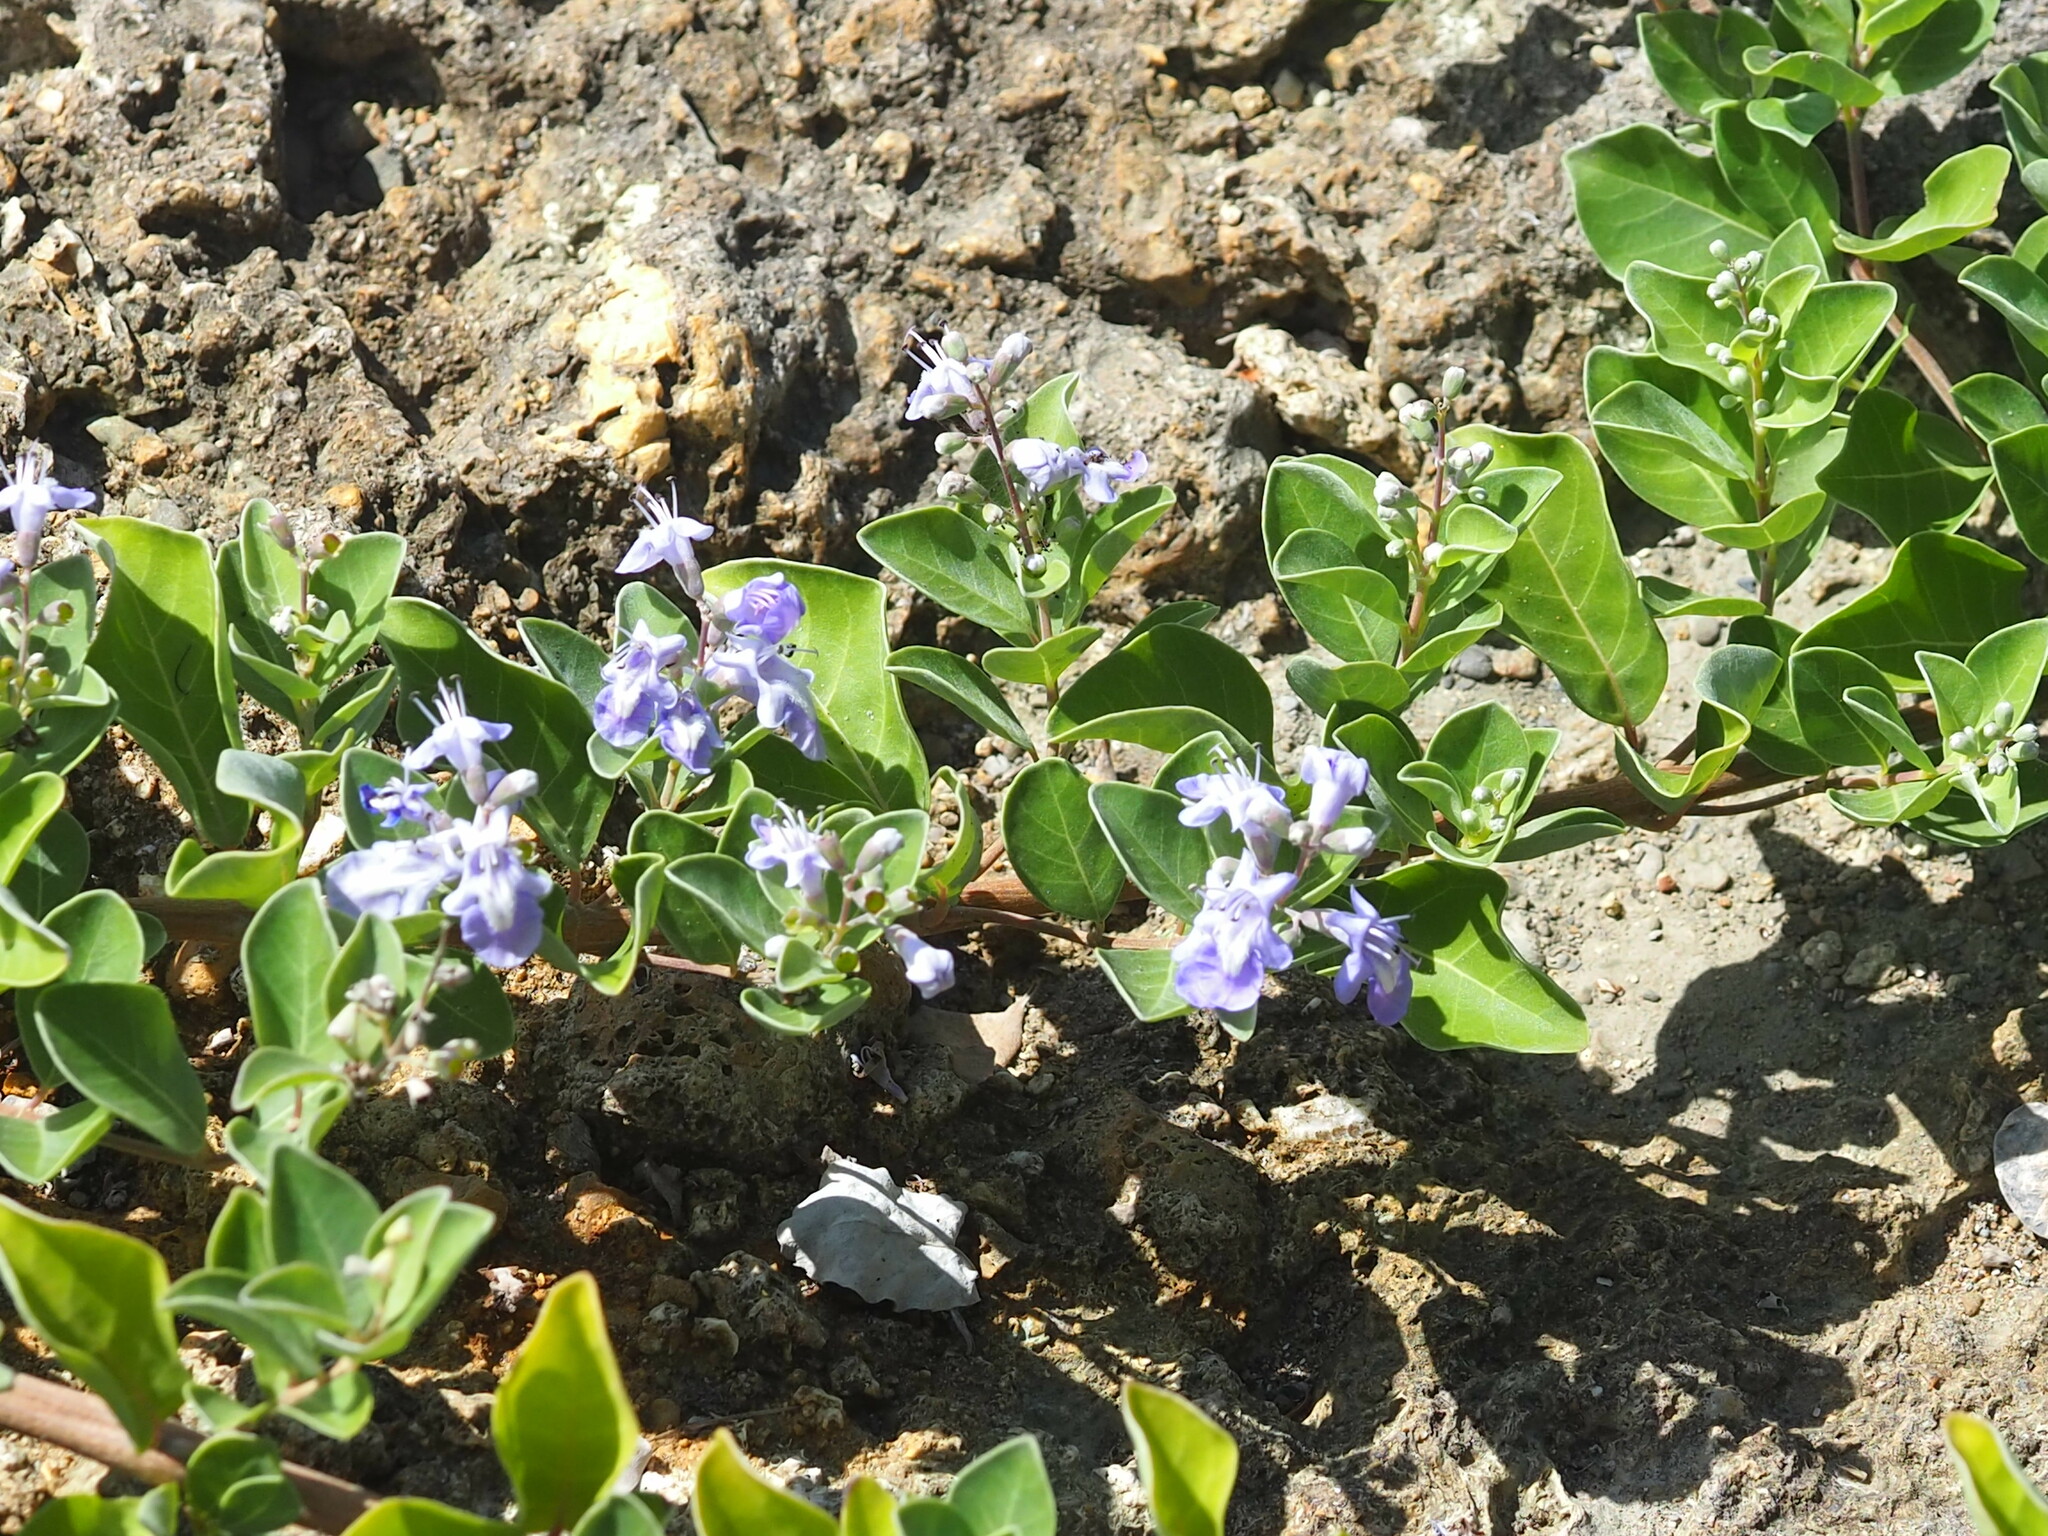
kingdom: Plantae
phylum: Tracheophyta
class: Magnoliopsida
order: Lamiales
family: Lamiaceae
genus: Vitex
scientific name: Vitex rotundifolia
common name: Beach vitex
